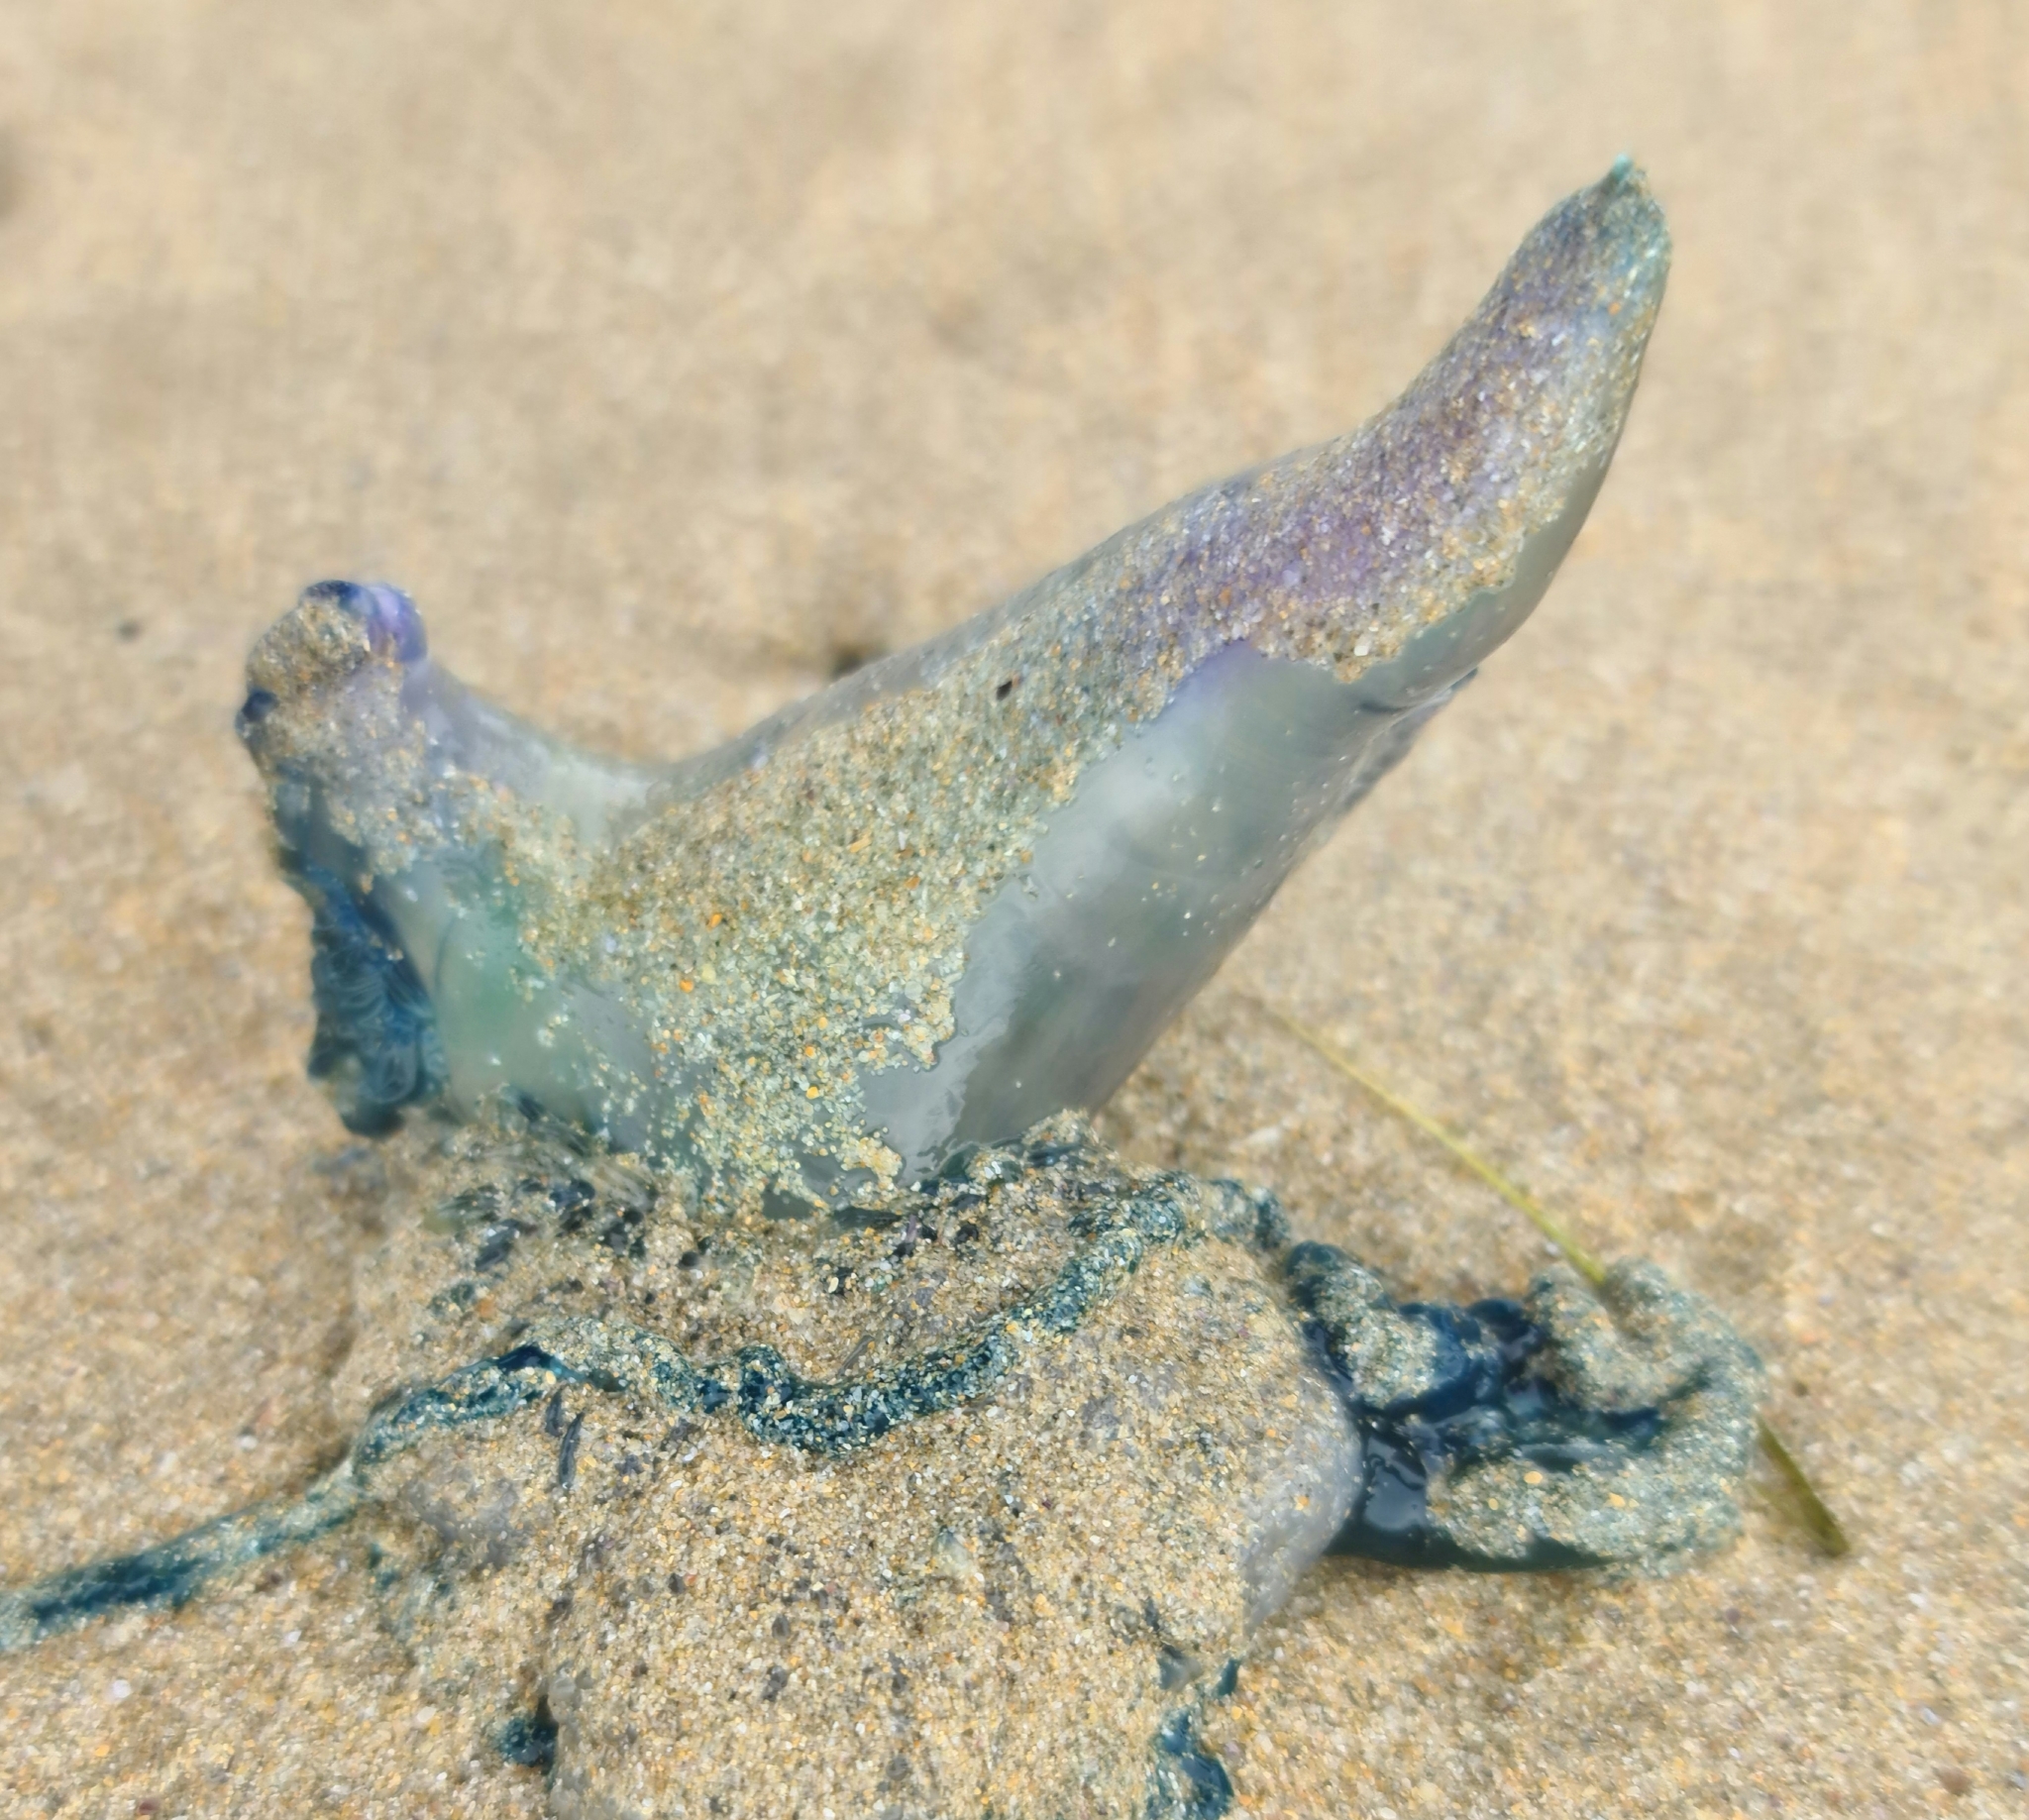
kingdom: Animalia
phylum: Cnidaria
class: Hydrozoa
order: Siphonophorae
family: Physaliidae
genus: Physalia
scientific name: Physalia physalis
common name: Portuguese man-of-war
